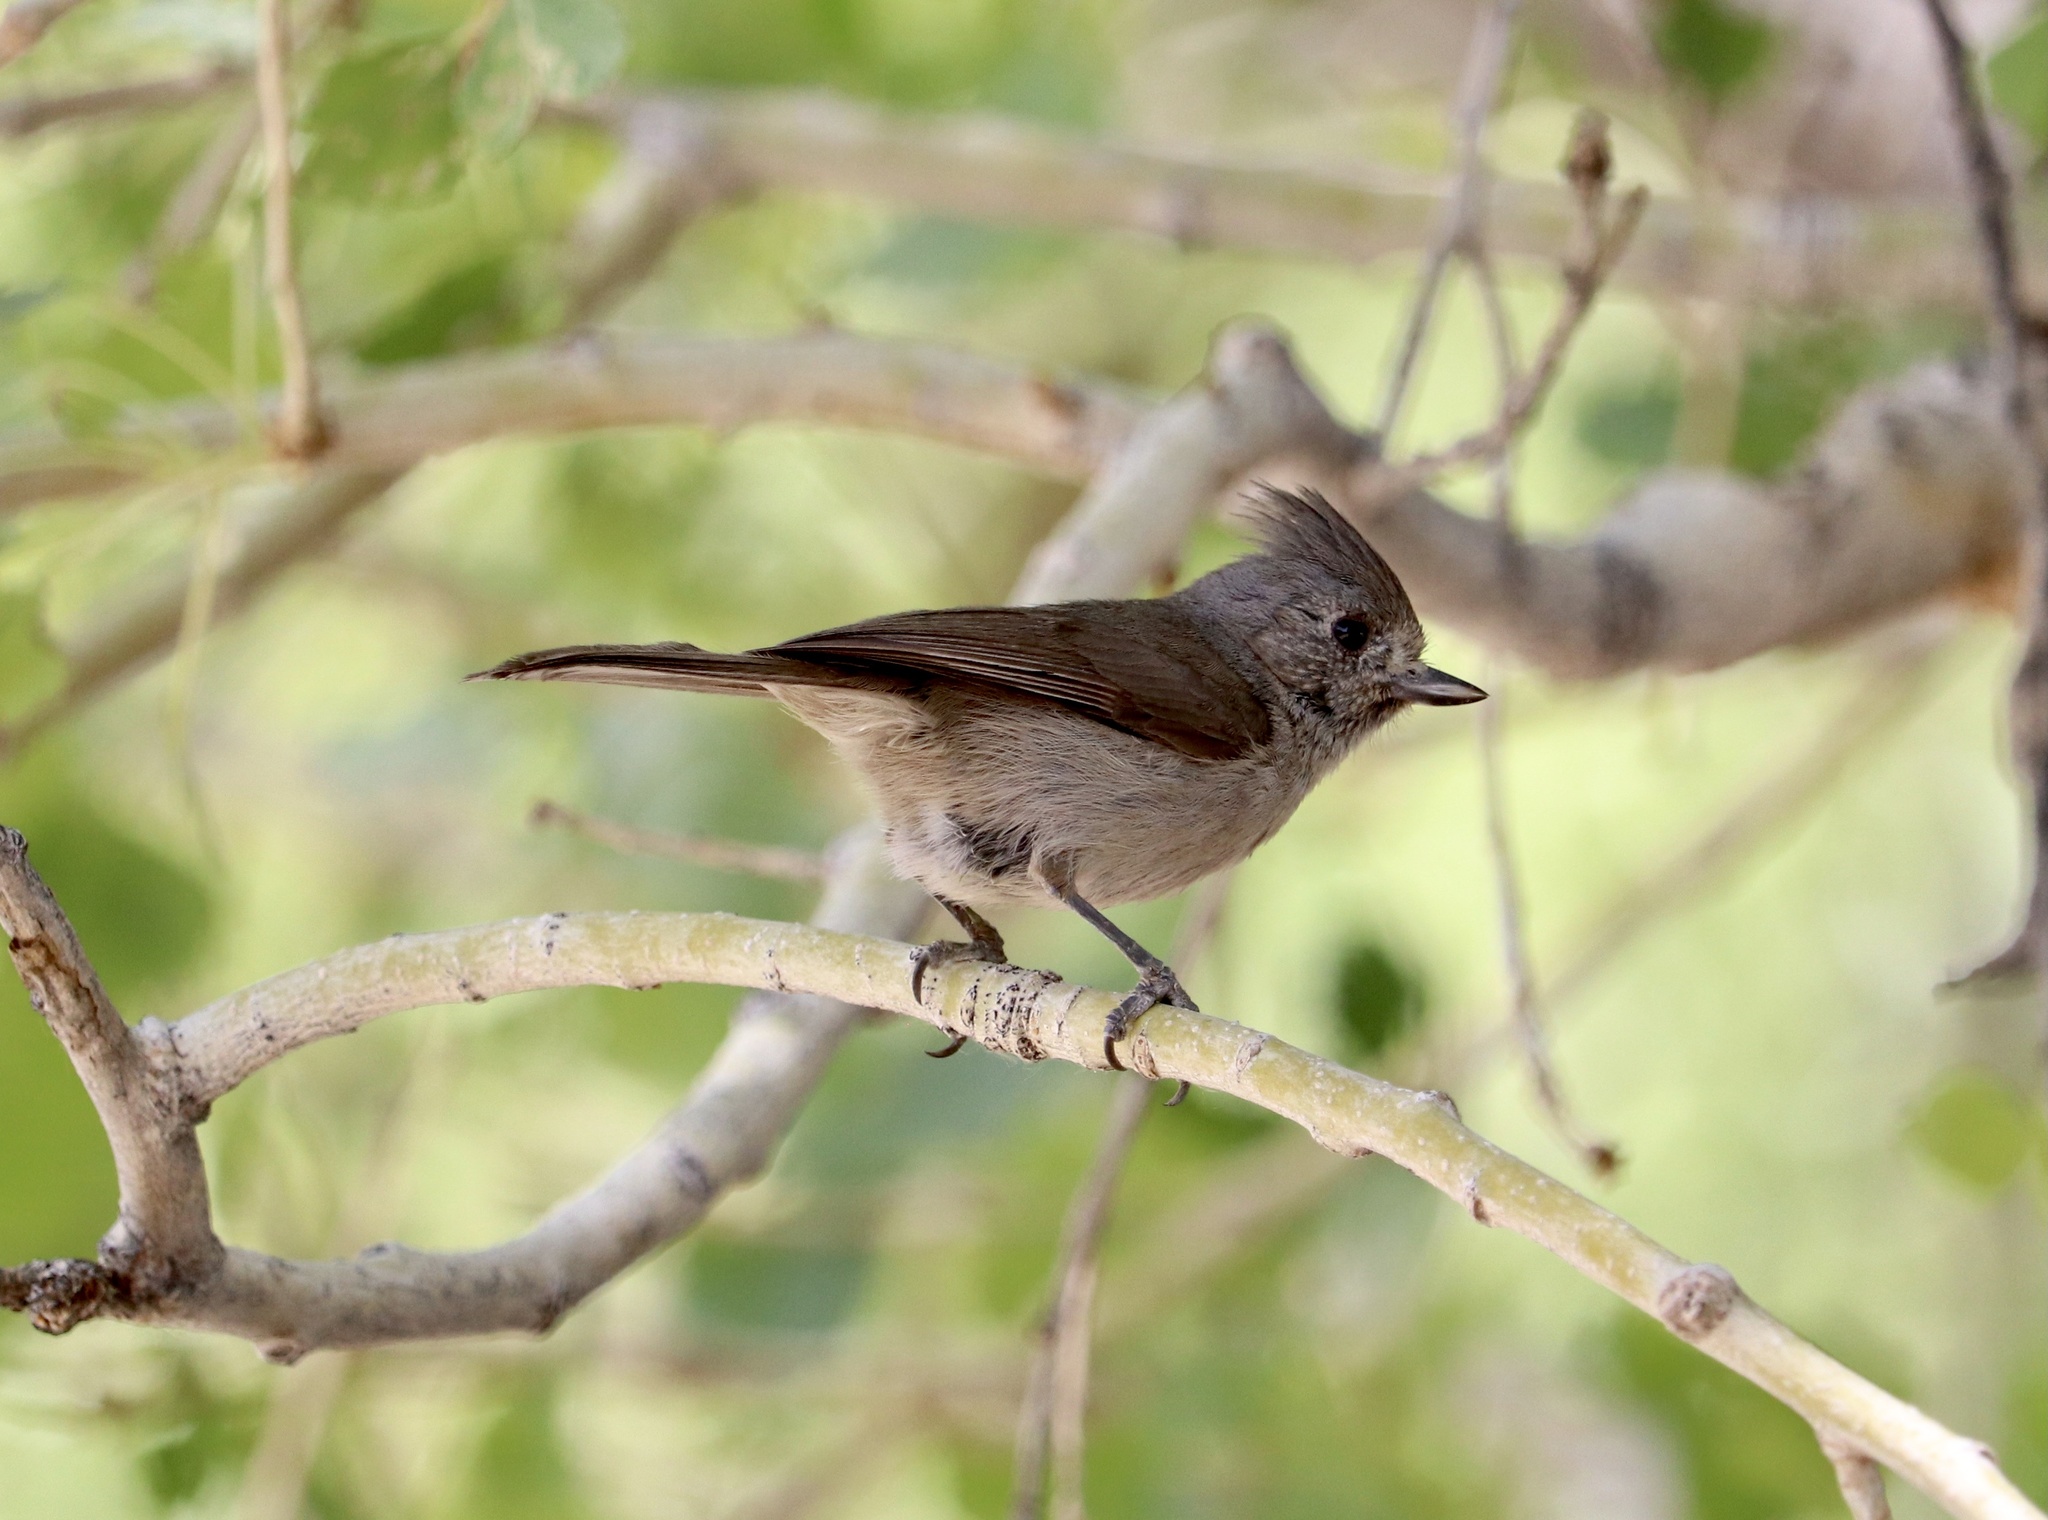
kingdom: Animalia
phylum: Chordata
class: Aves
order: Passeriformes
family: Paridae
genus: Baeolophus
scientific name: Baeolophus inornatus
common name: Oak titmouse
